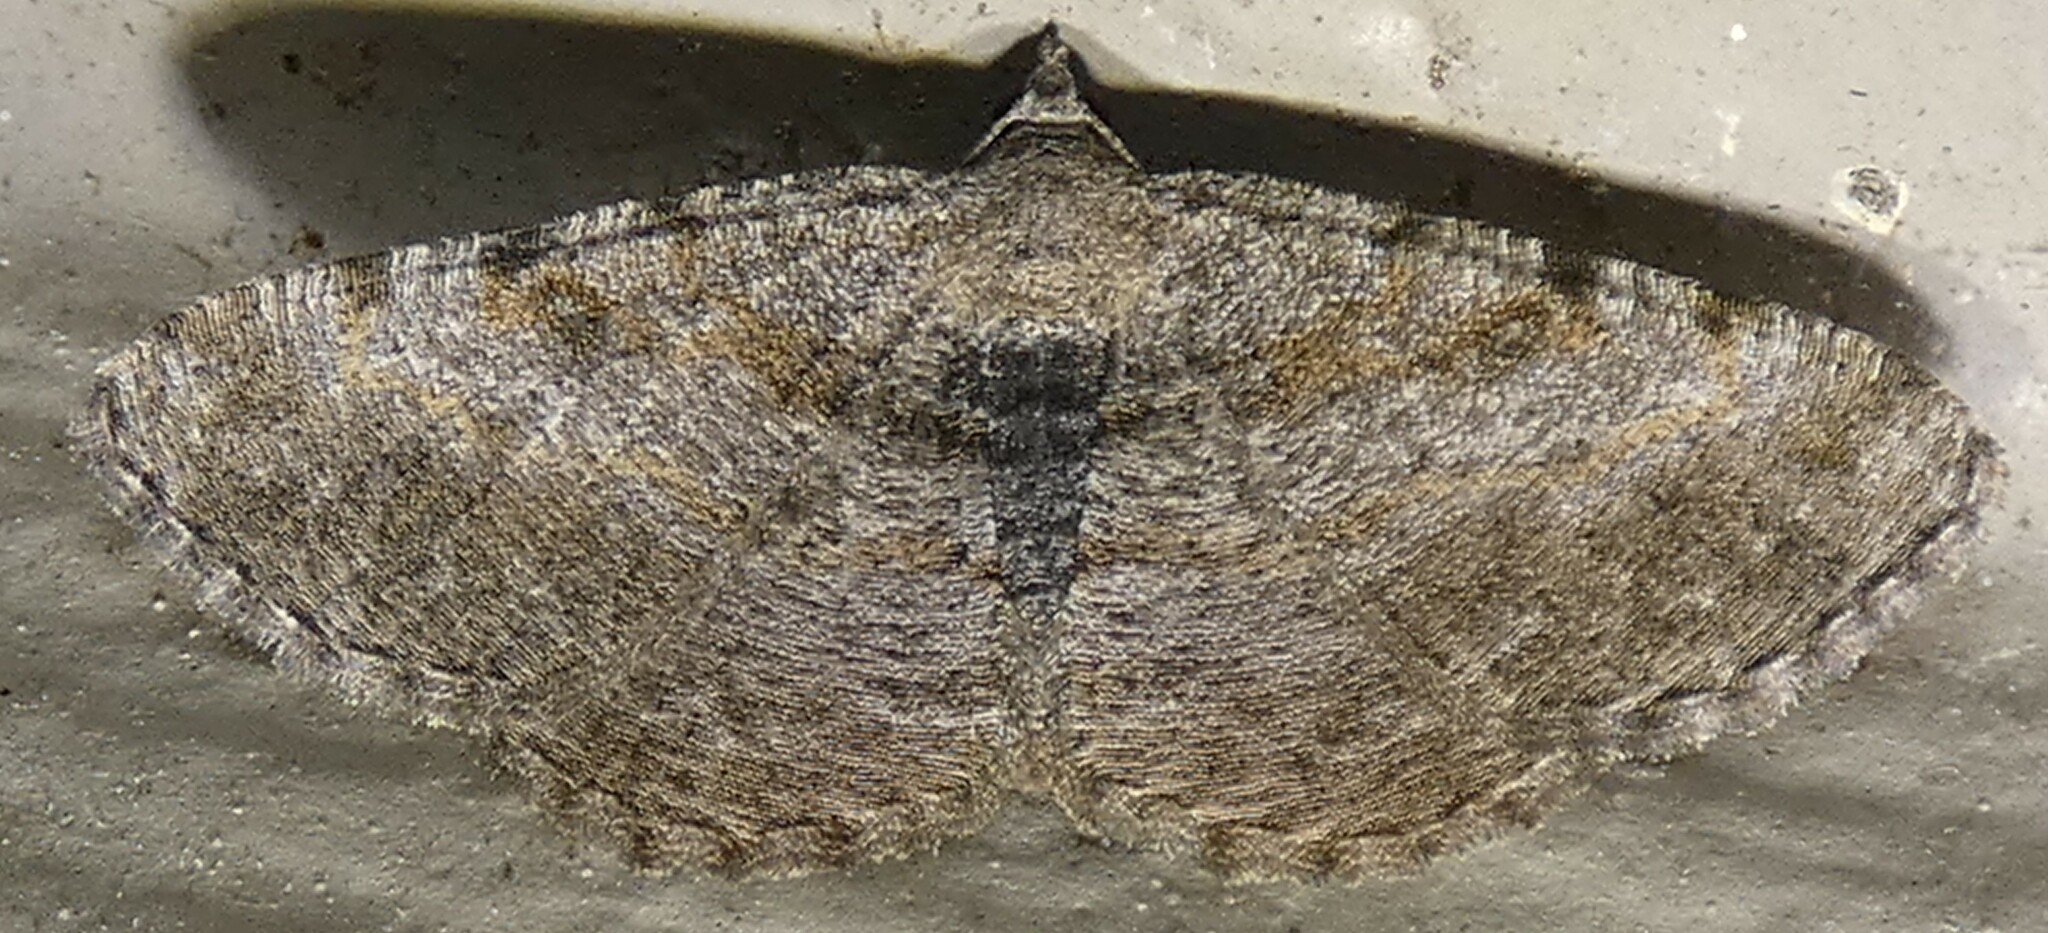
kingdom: Animalia
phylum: Arthropoda
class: Insecta
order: Lepidoptera
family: Geometridae
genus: Digrammia
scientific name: Digrammia gnophosaria
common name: Hollow-spotted angle
